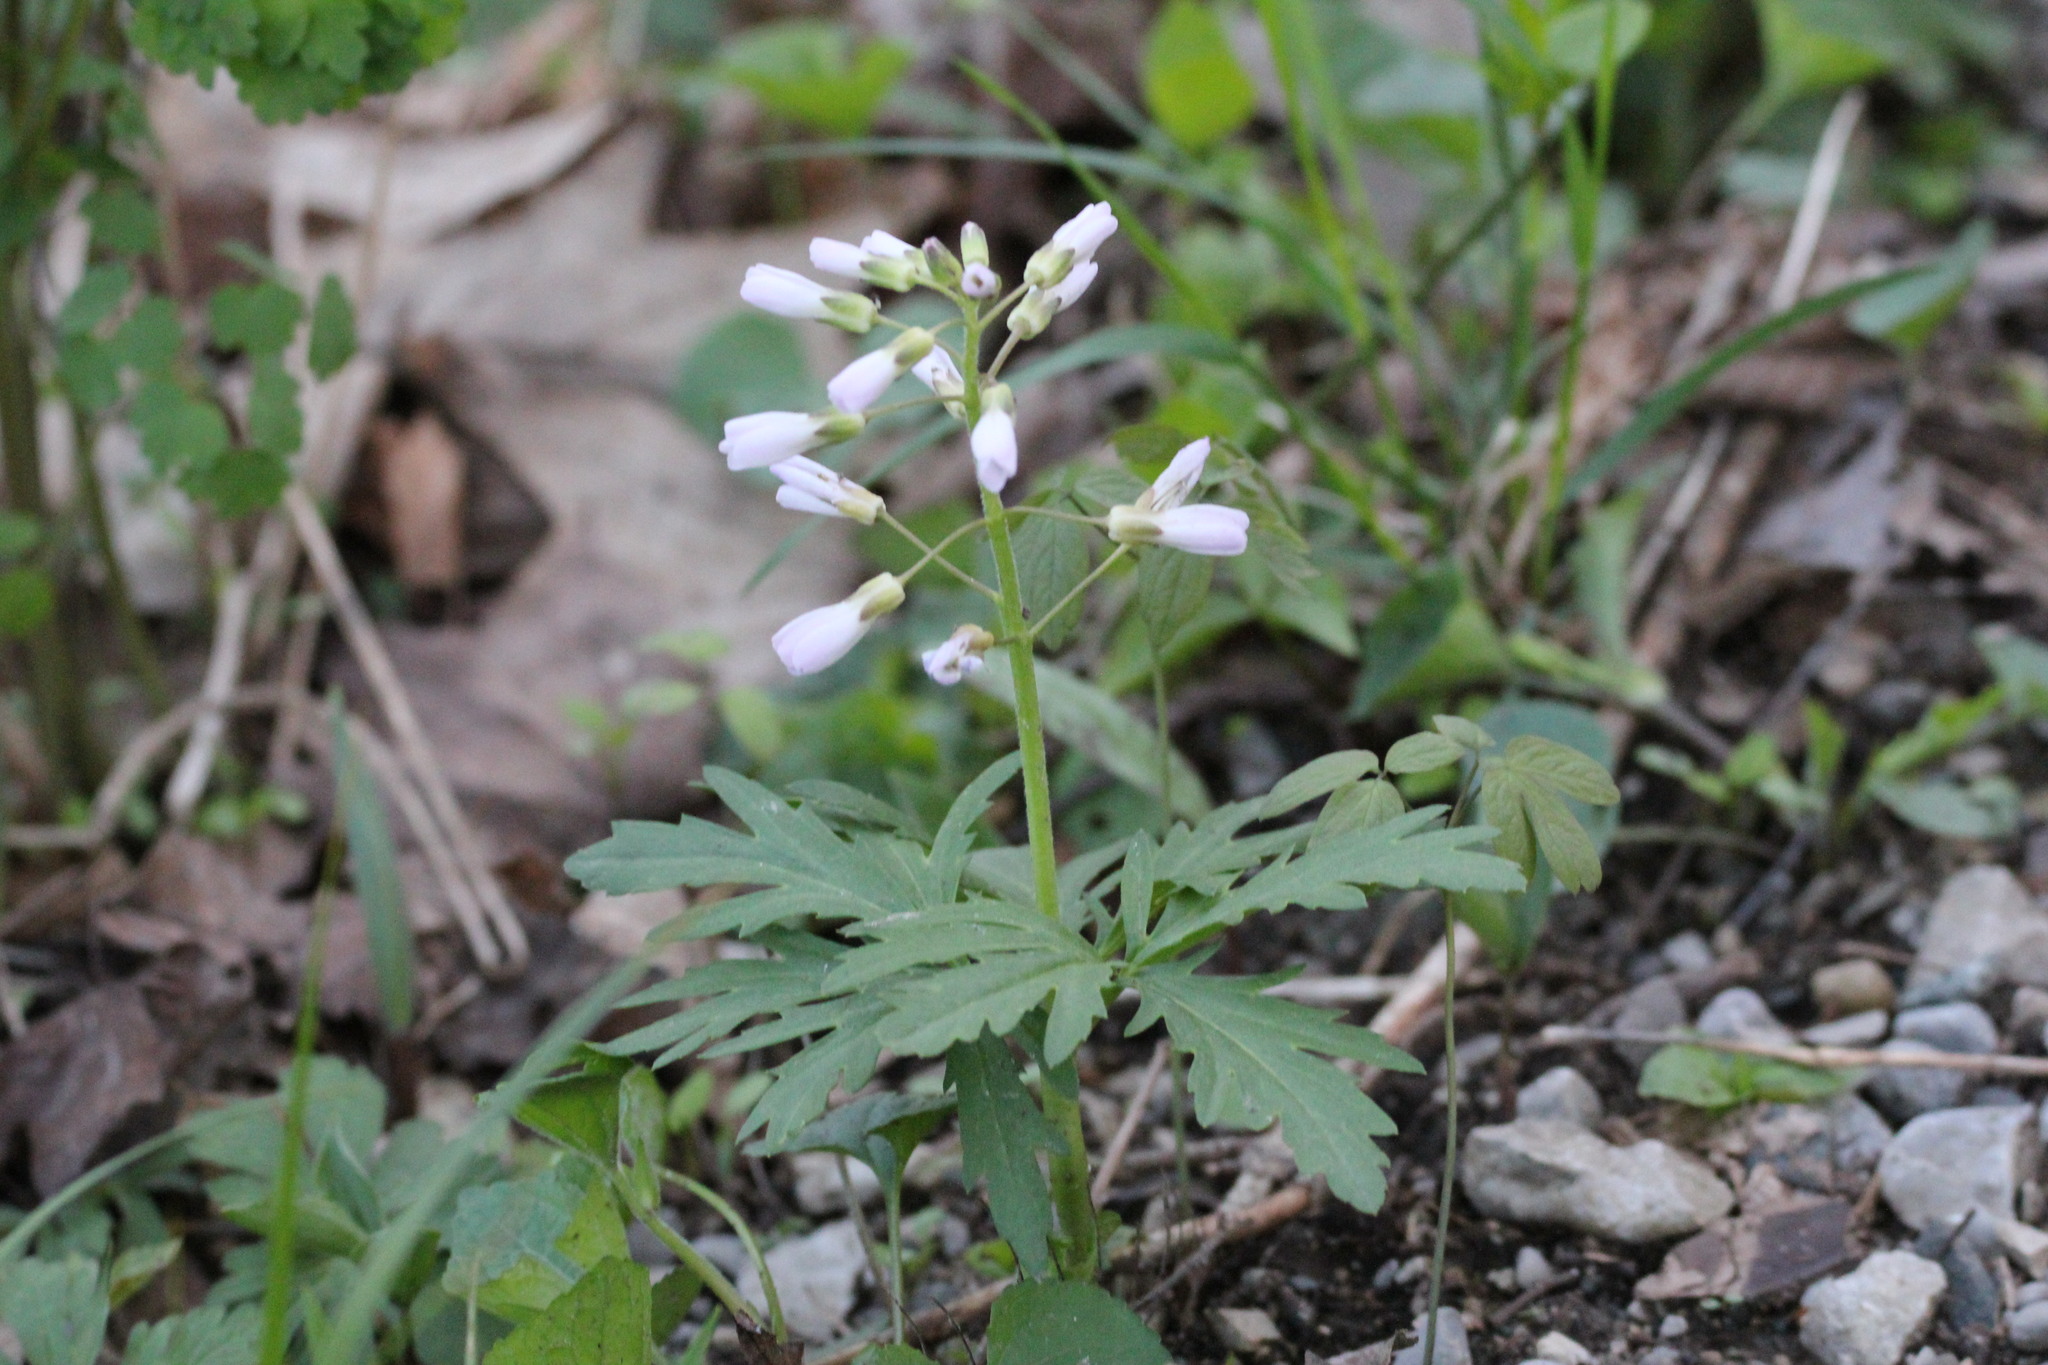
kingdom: Plantae
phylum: Tracheophyta
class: Magnoliopsida
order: Brassicales
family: Brassicaceae
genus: Cardamine
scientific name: Cardamine concatenata
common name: Cut-leaf toothcup
